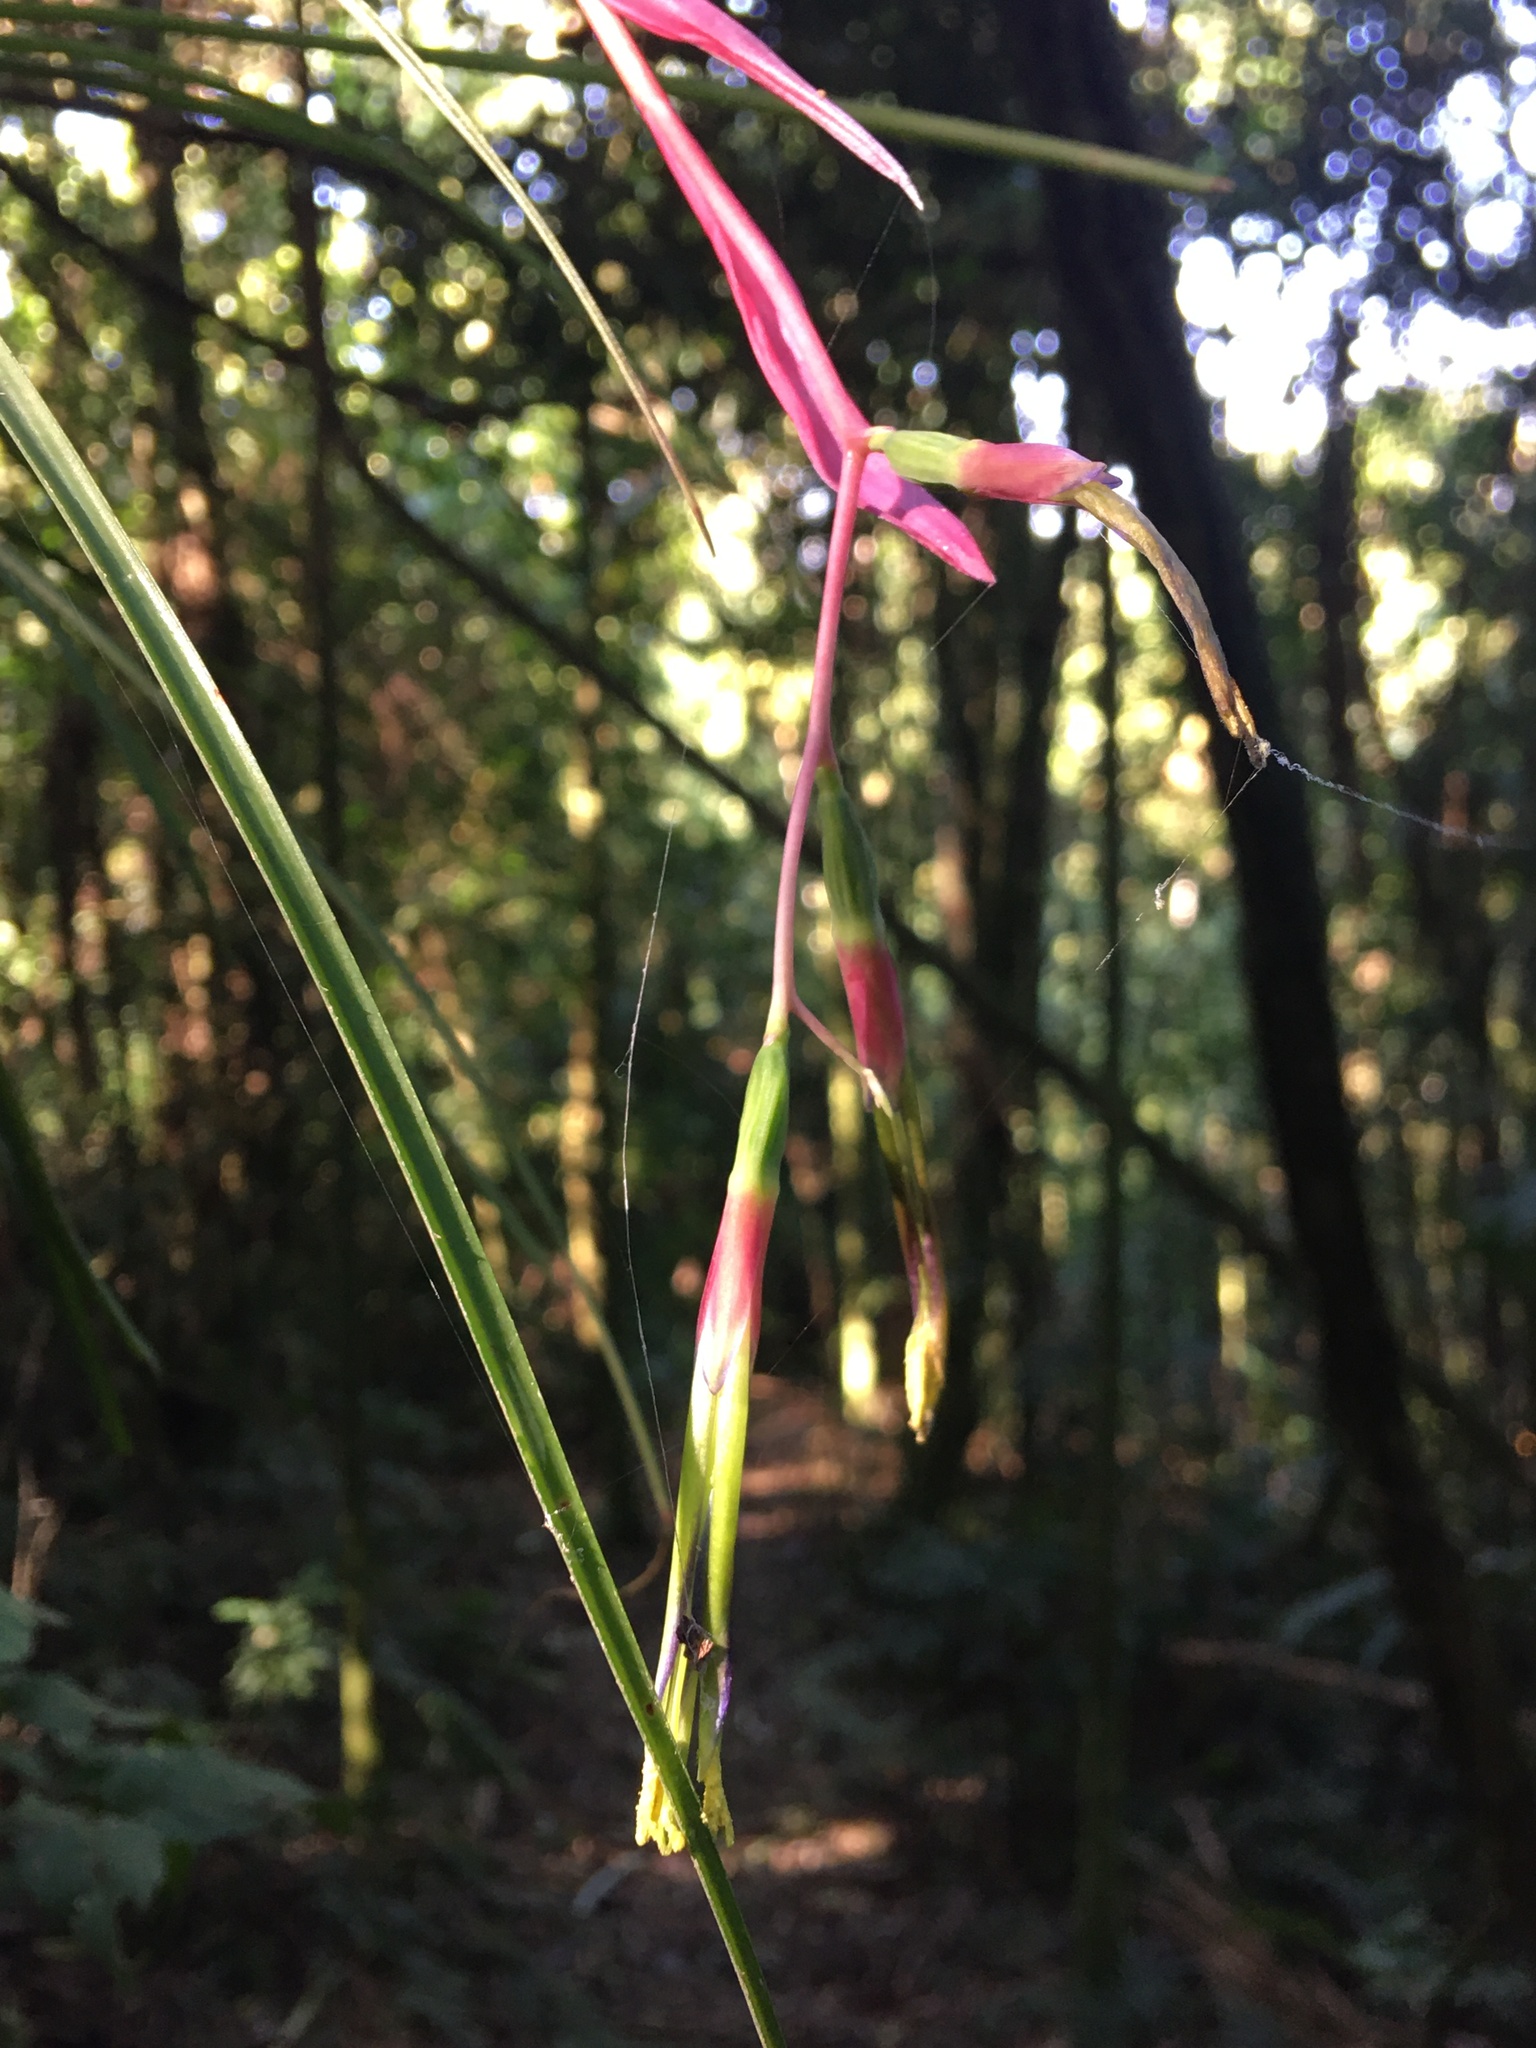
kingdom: Plantae
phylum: Tracheophyta
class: Liliopsida
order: Poales
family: Bromeliaceae
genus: Billbergia
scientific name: Billbergia nutans
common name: Friendship-plant
